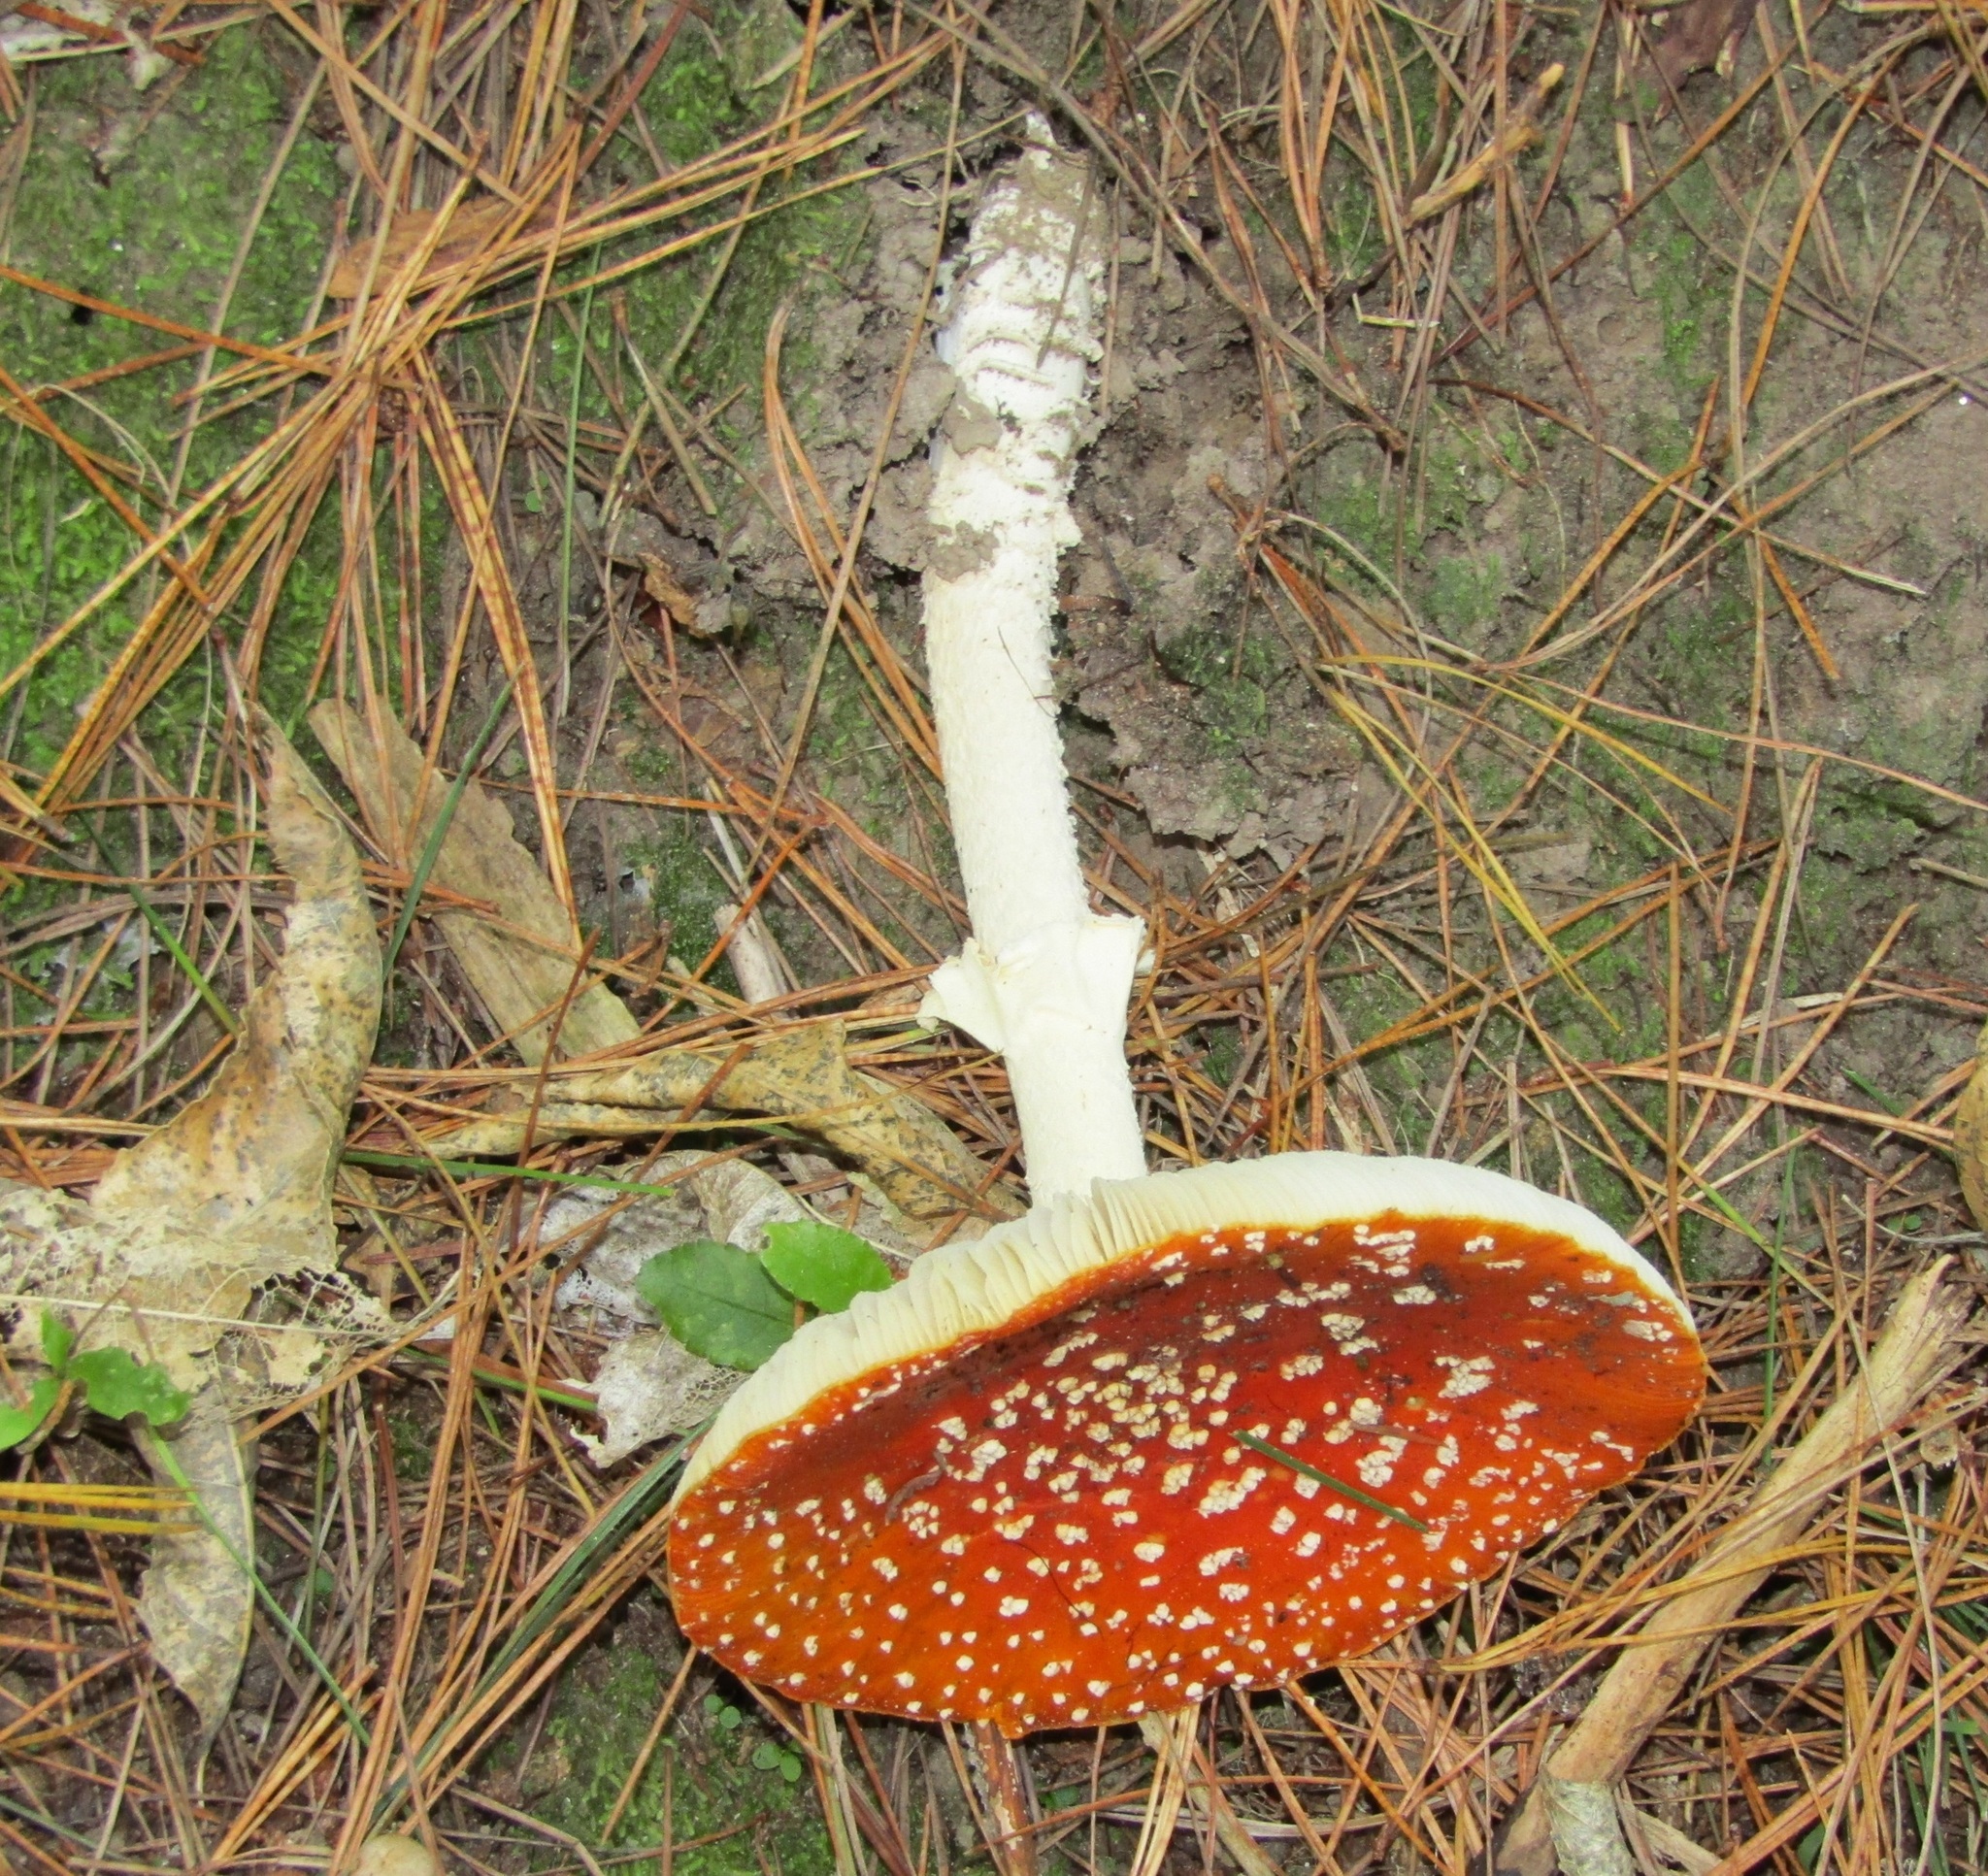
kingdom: Fungi
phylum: Basidiomycota
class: Agaricomycetes
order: Agaricales
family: Amanitaceae
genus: Amanita
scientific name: Amanita muscaria
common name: Fly agaric
